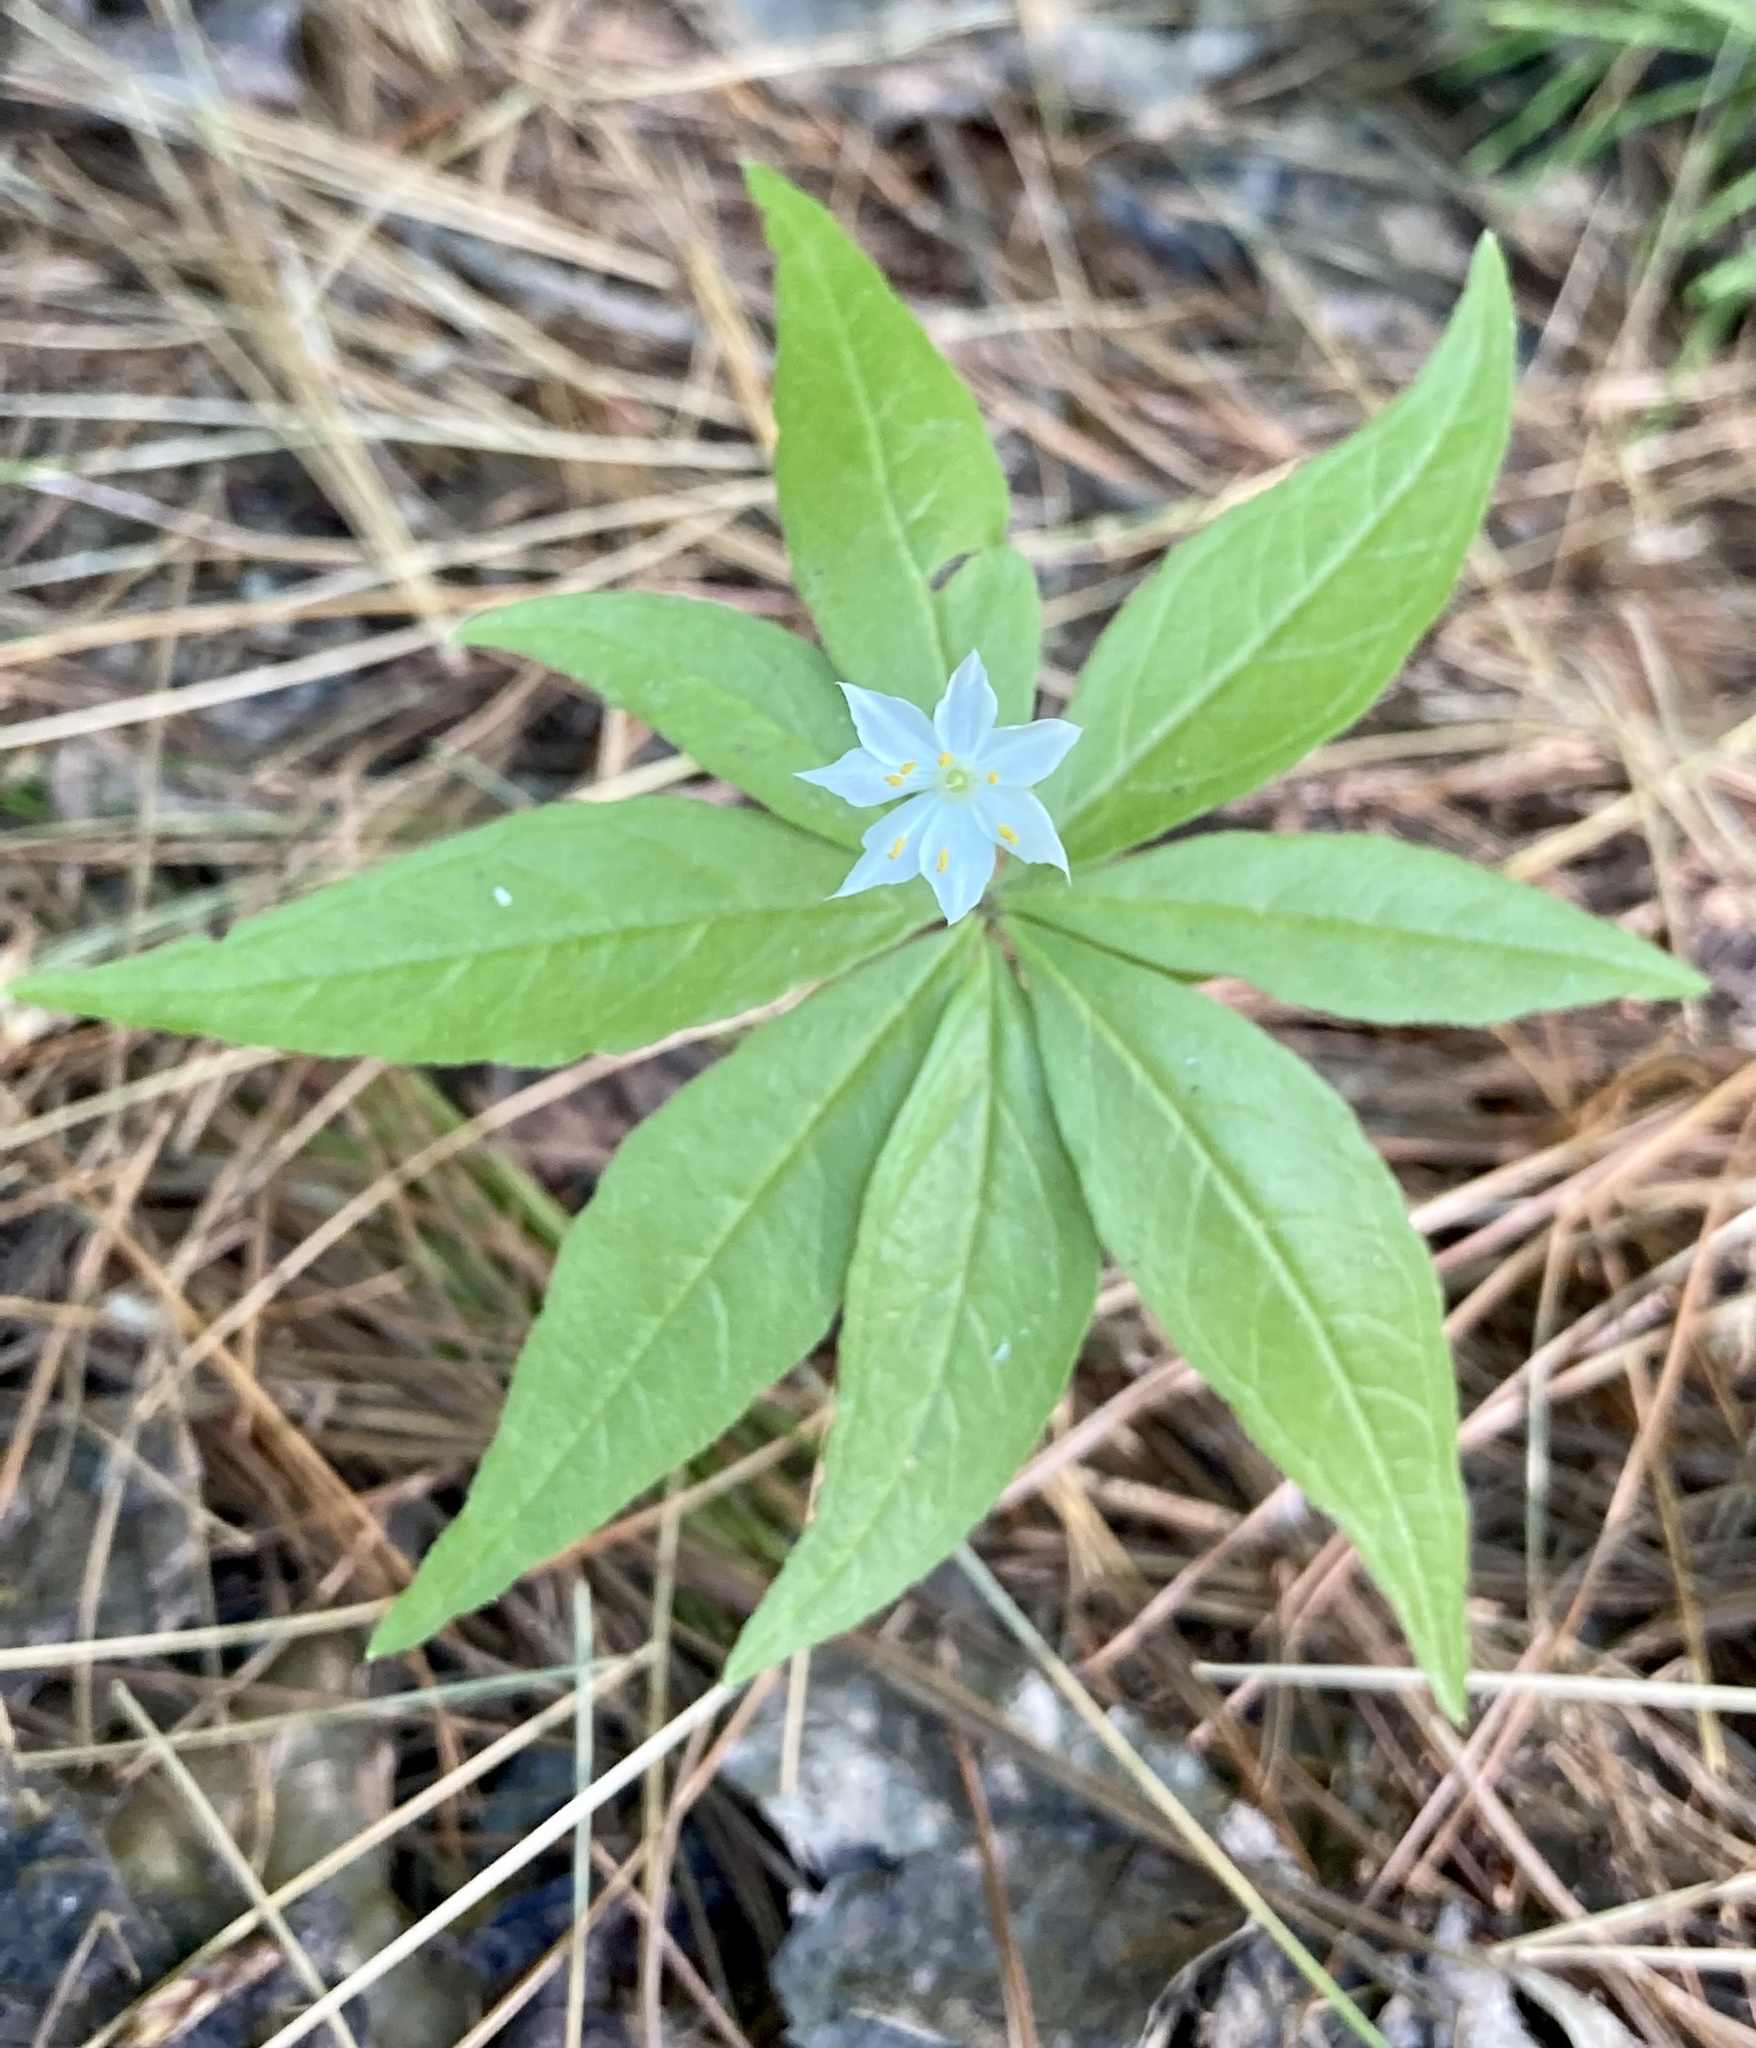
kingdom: Plantae
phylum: Tracheophyta
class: Magnoliopsida
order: Ericales
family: Primulaceae
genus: Lysimachia
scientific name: Lysimachia borealis
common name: American starflower
